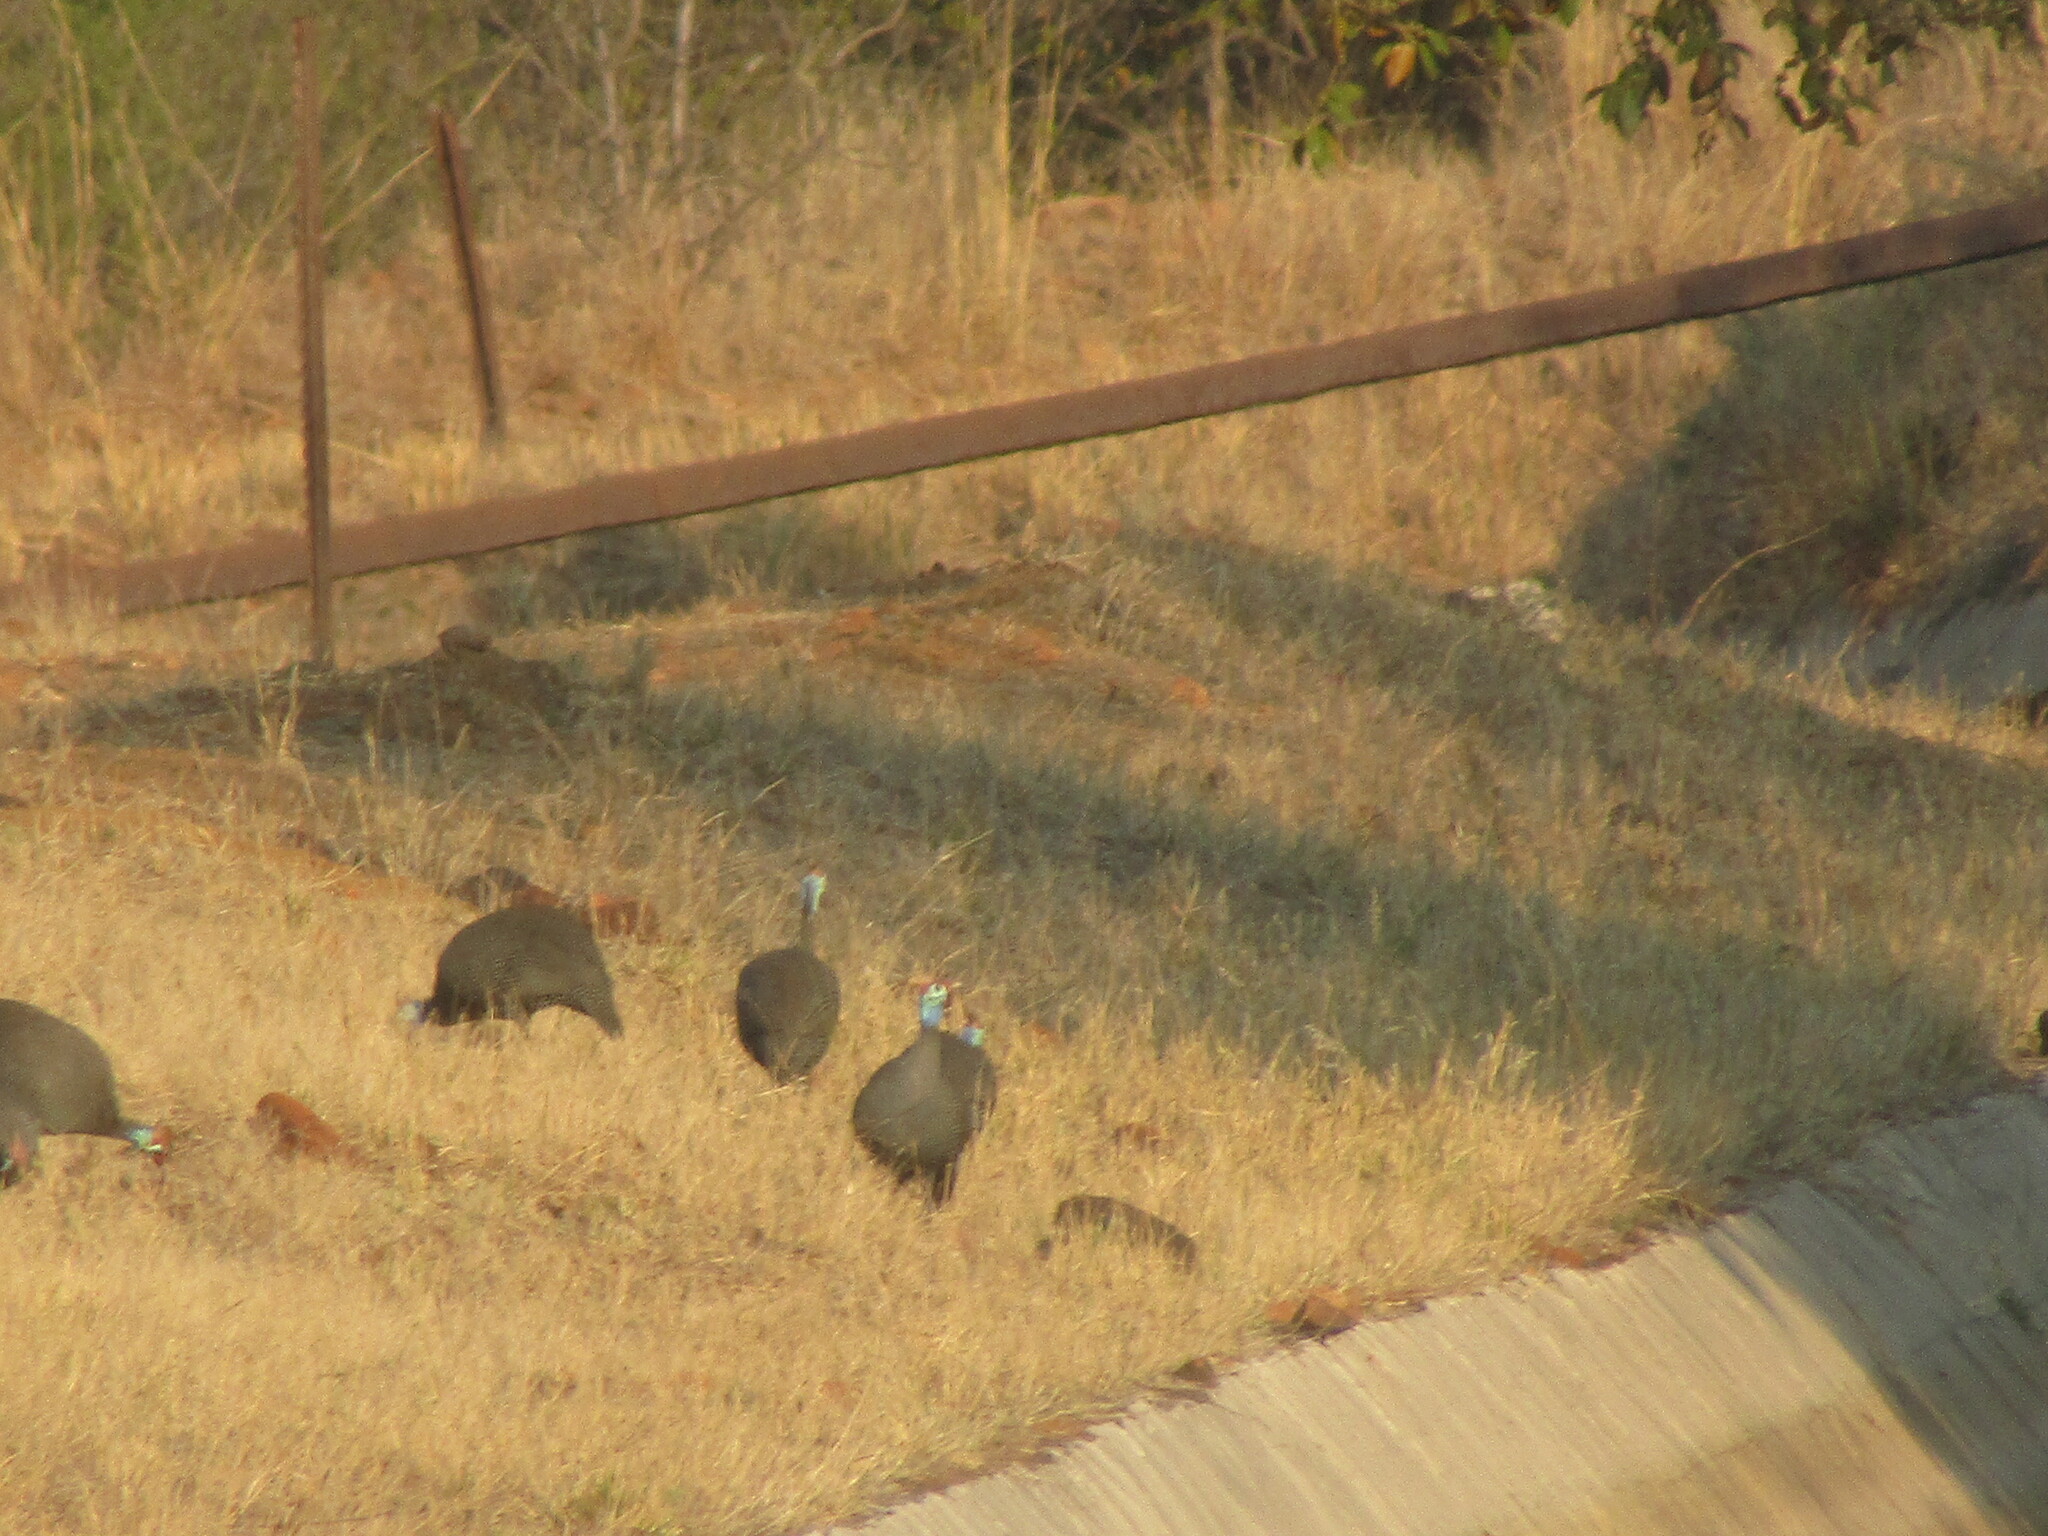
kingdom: Animalia
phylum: Chordata
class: Aves
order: Galliformes
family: Numididae
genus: Numida
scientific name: Numida meleagris
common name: Helmeted guineafowl
